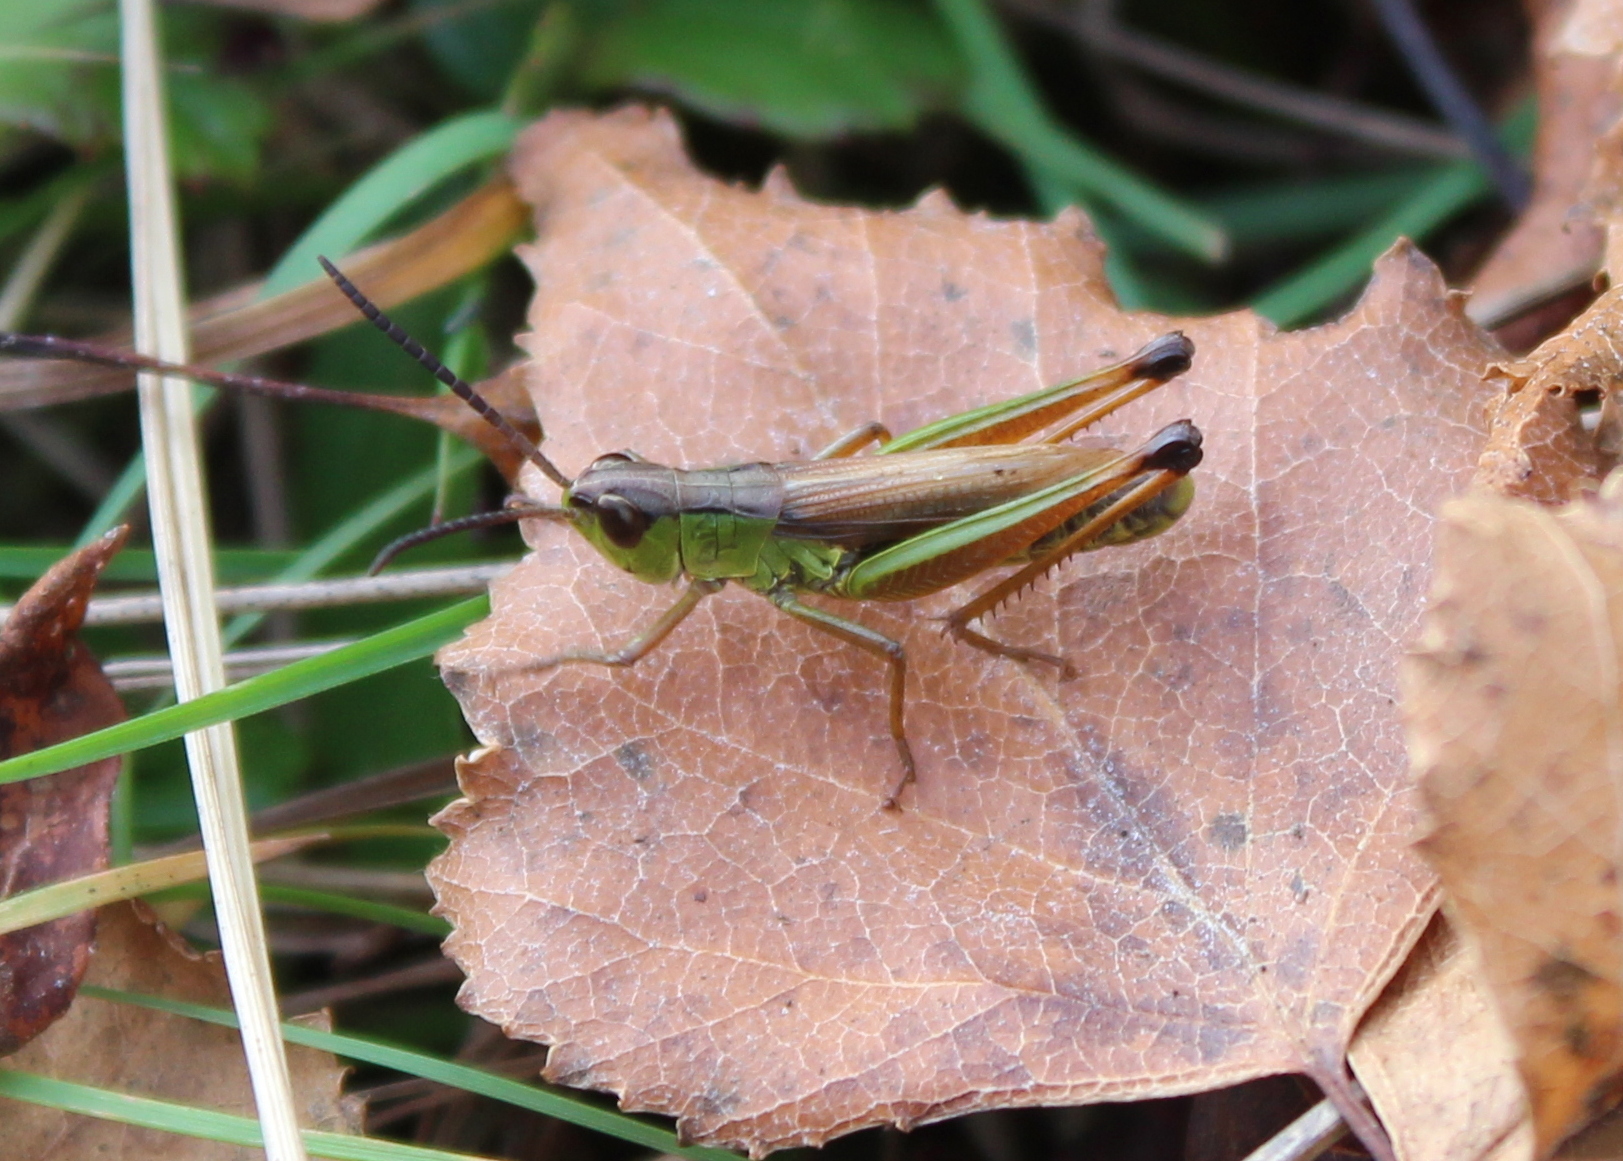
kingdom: Animalia
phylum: Arthropoda
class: Insecta
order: Orthoptera
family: Acrididae
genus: Pseudochorthippus
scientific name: Pseudochorthippus curtipennis
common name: Marsh meadow grasshopper
